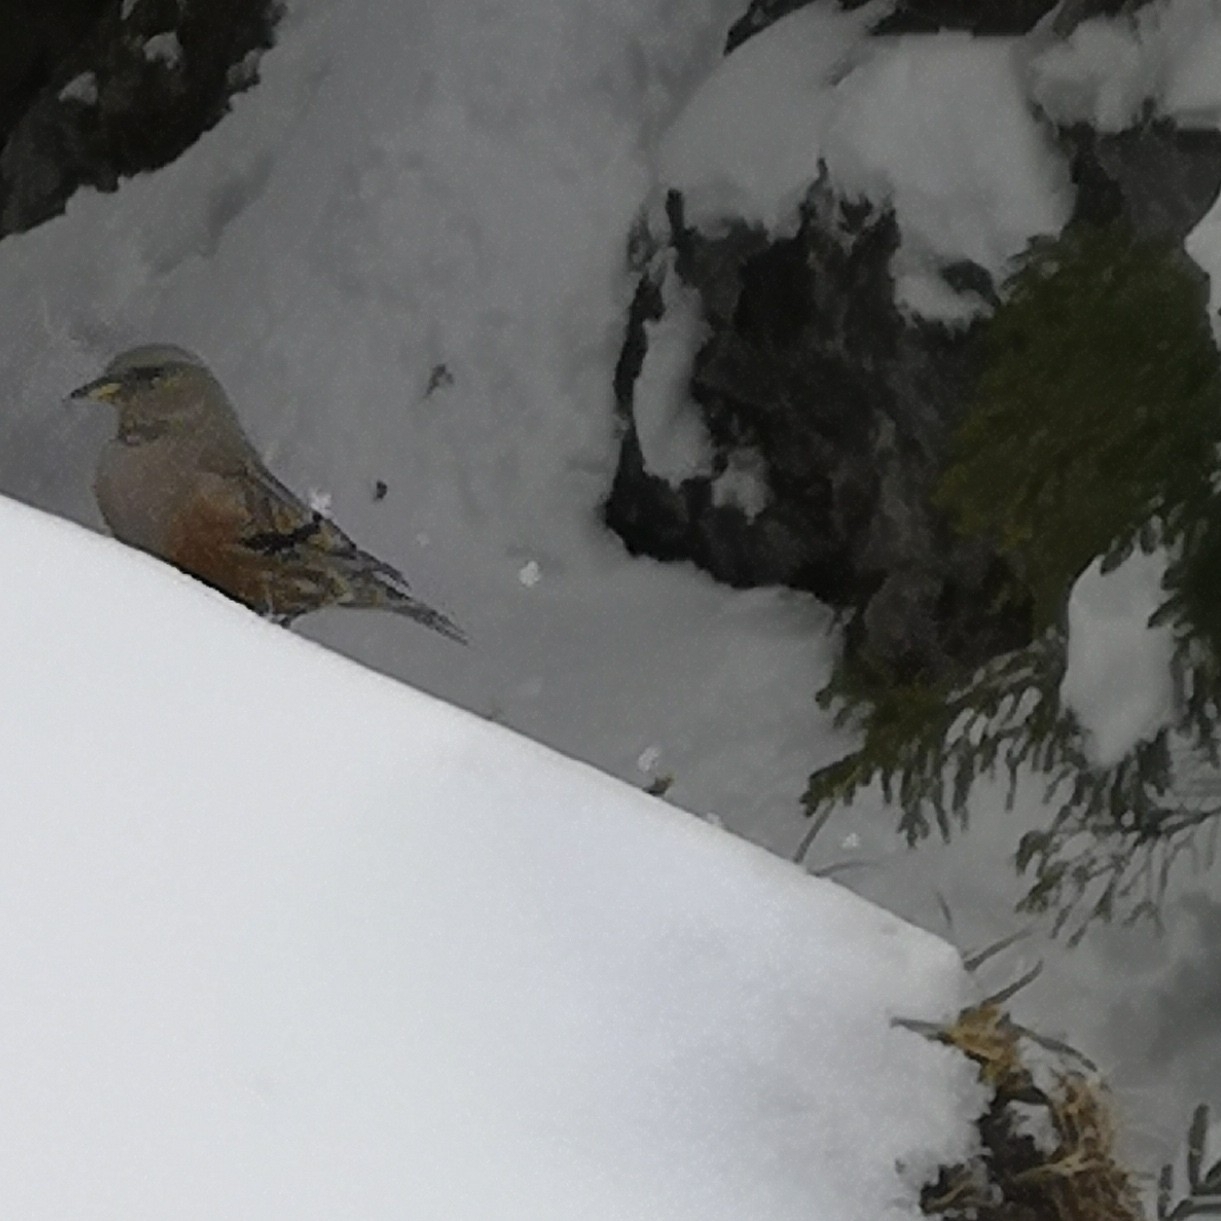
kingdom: Animalia
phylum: Chordata
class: Aves
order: Passeriformes
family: Prunellidae
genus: Prunella
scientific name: Prunella collaris
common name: Alpine accentor
